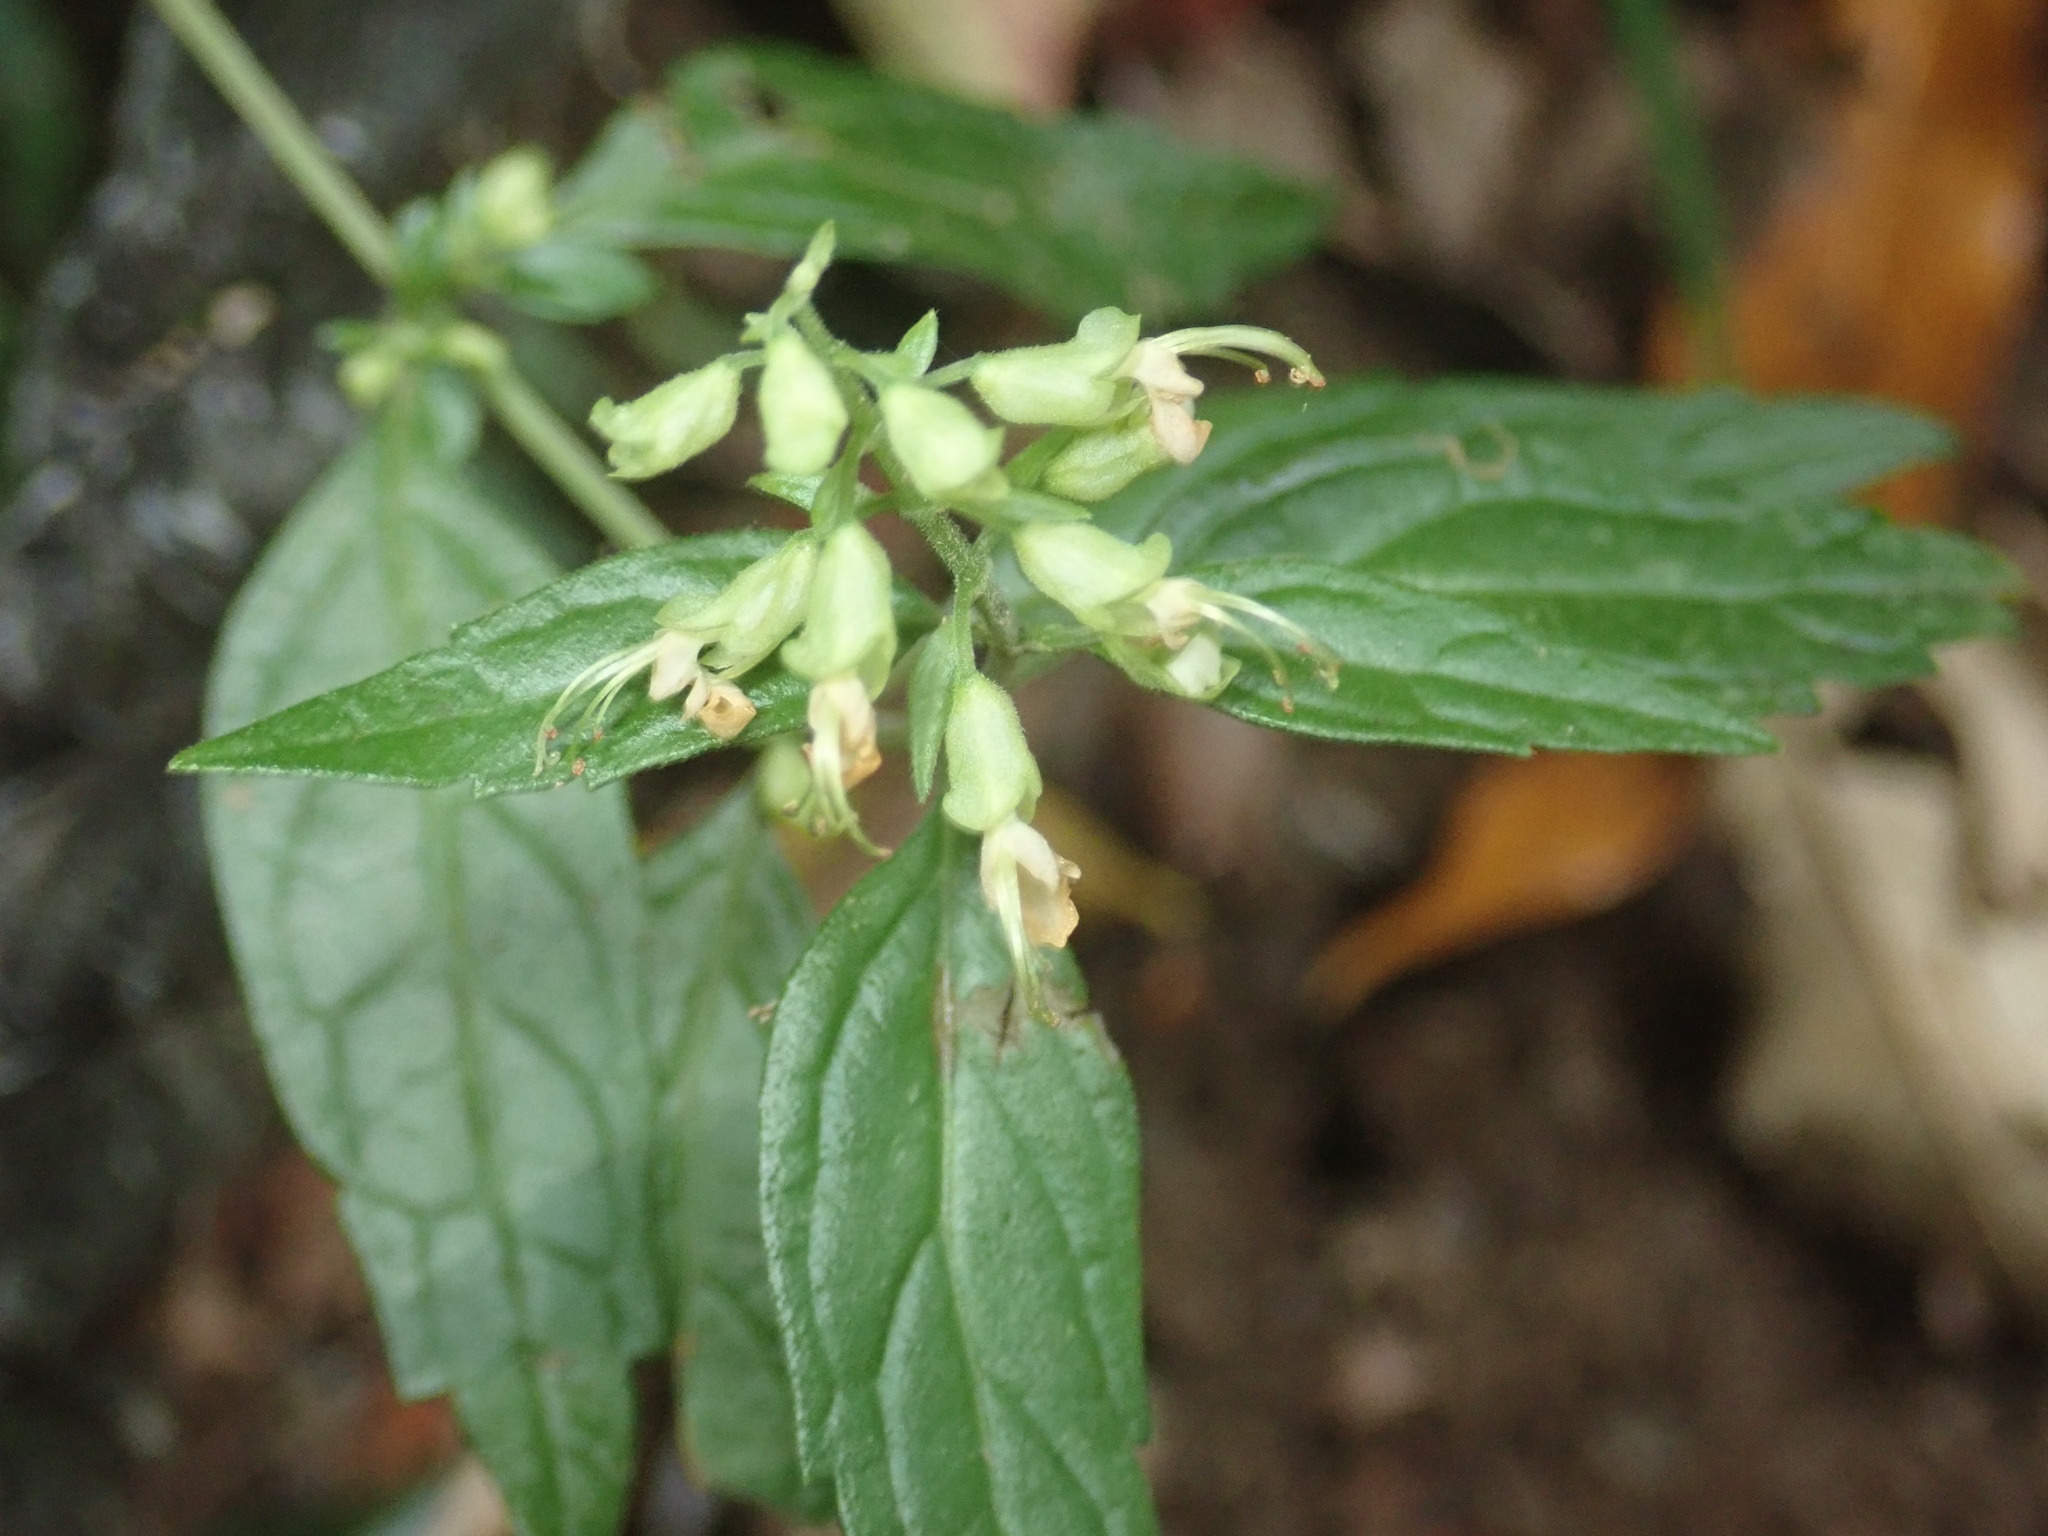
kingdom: Plantae
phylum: Tracheophyta
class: Magnoliopsida
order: Lamiales
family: Lamiaceae
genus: Teucrium
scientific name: Teucrium bidentatum
